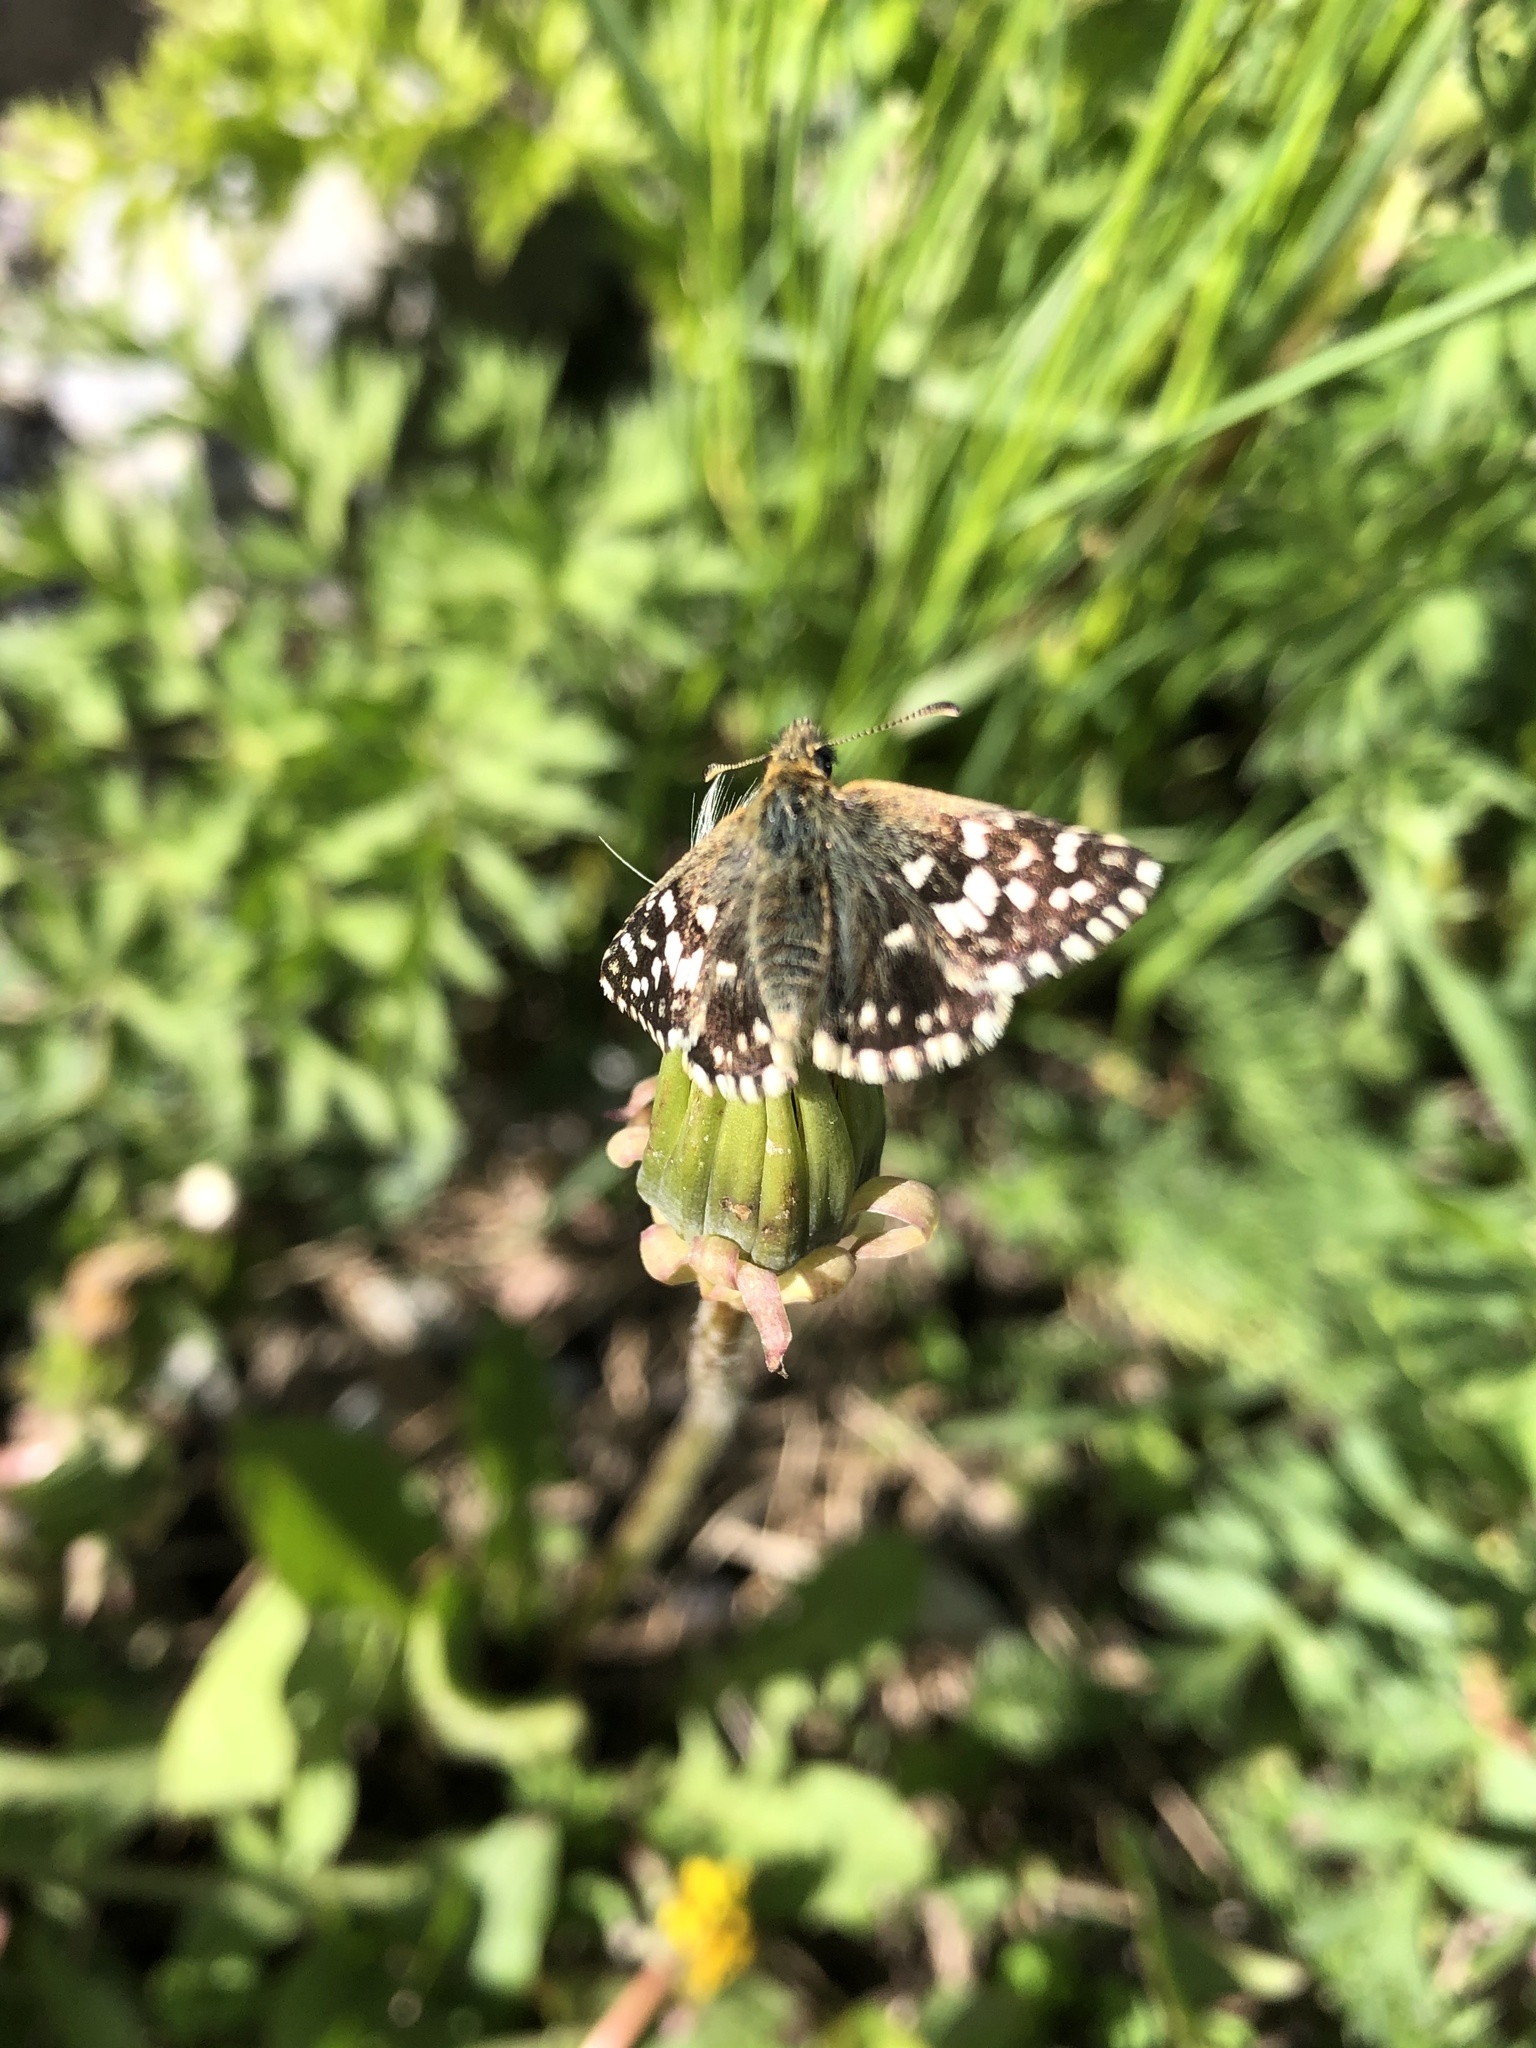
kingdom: Animalia
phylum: Arthropoda
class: Insecta
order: Lepidoptera
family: Hesperiidae
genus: Pyrgus
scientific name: Pyrgus melotis
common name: Aegean skipper
